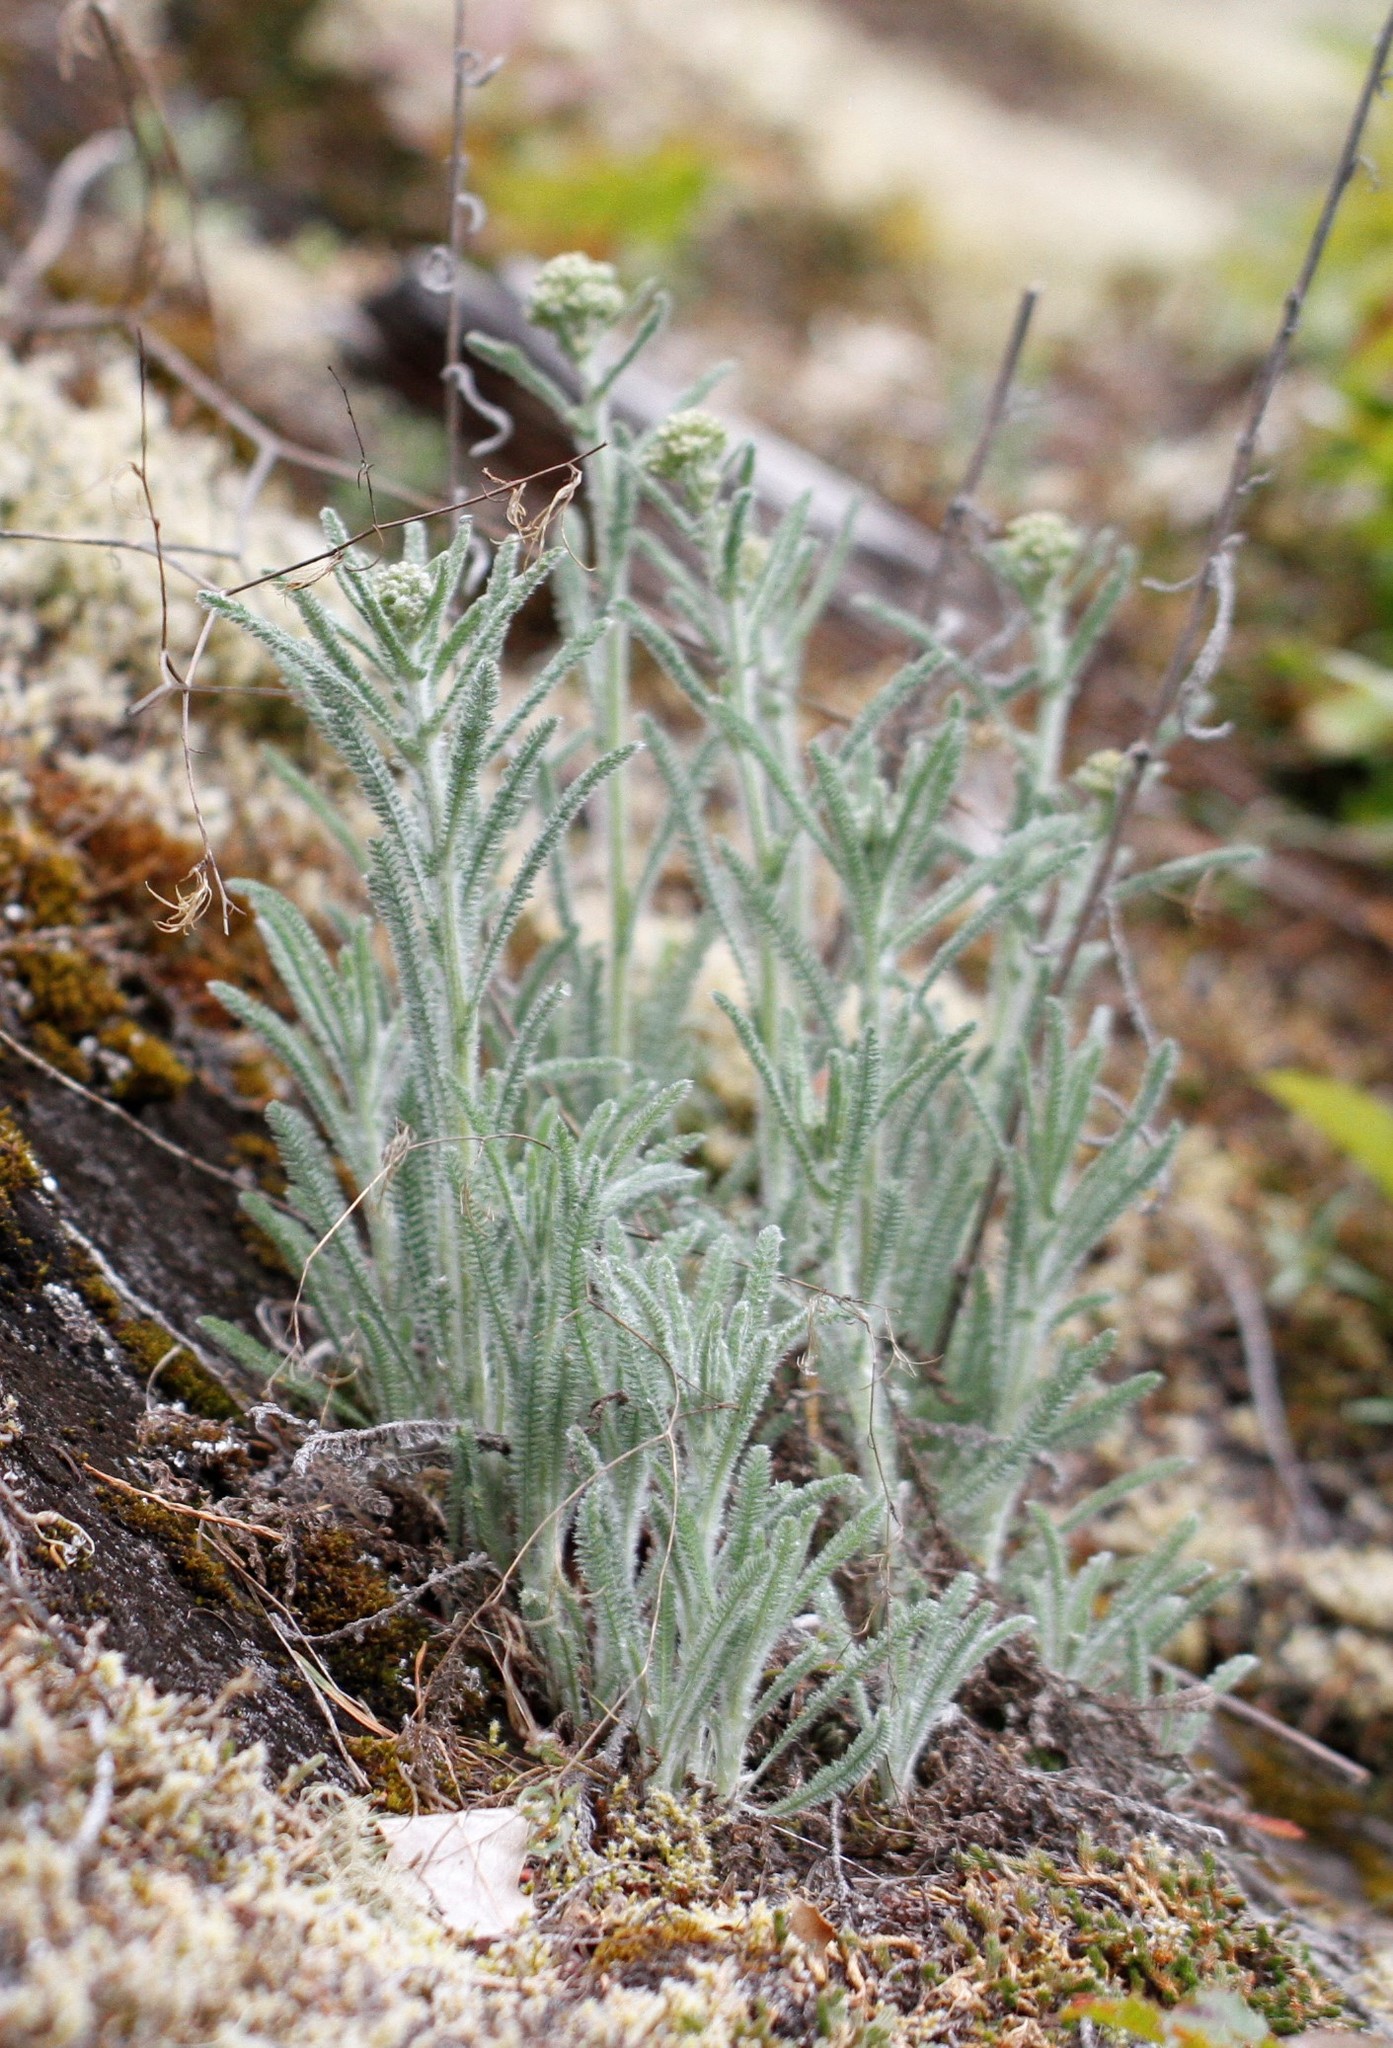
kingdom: Plantae
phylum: Tracheophyta
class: Magnoliopsida
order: Asterales
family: Asteraceae
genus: Achillea
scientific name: Achillea millefolium
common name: Yarrow
